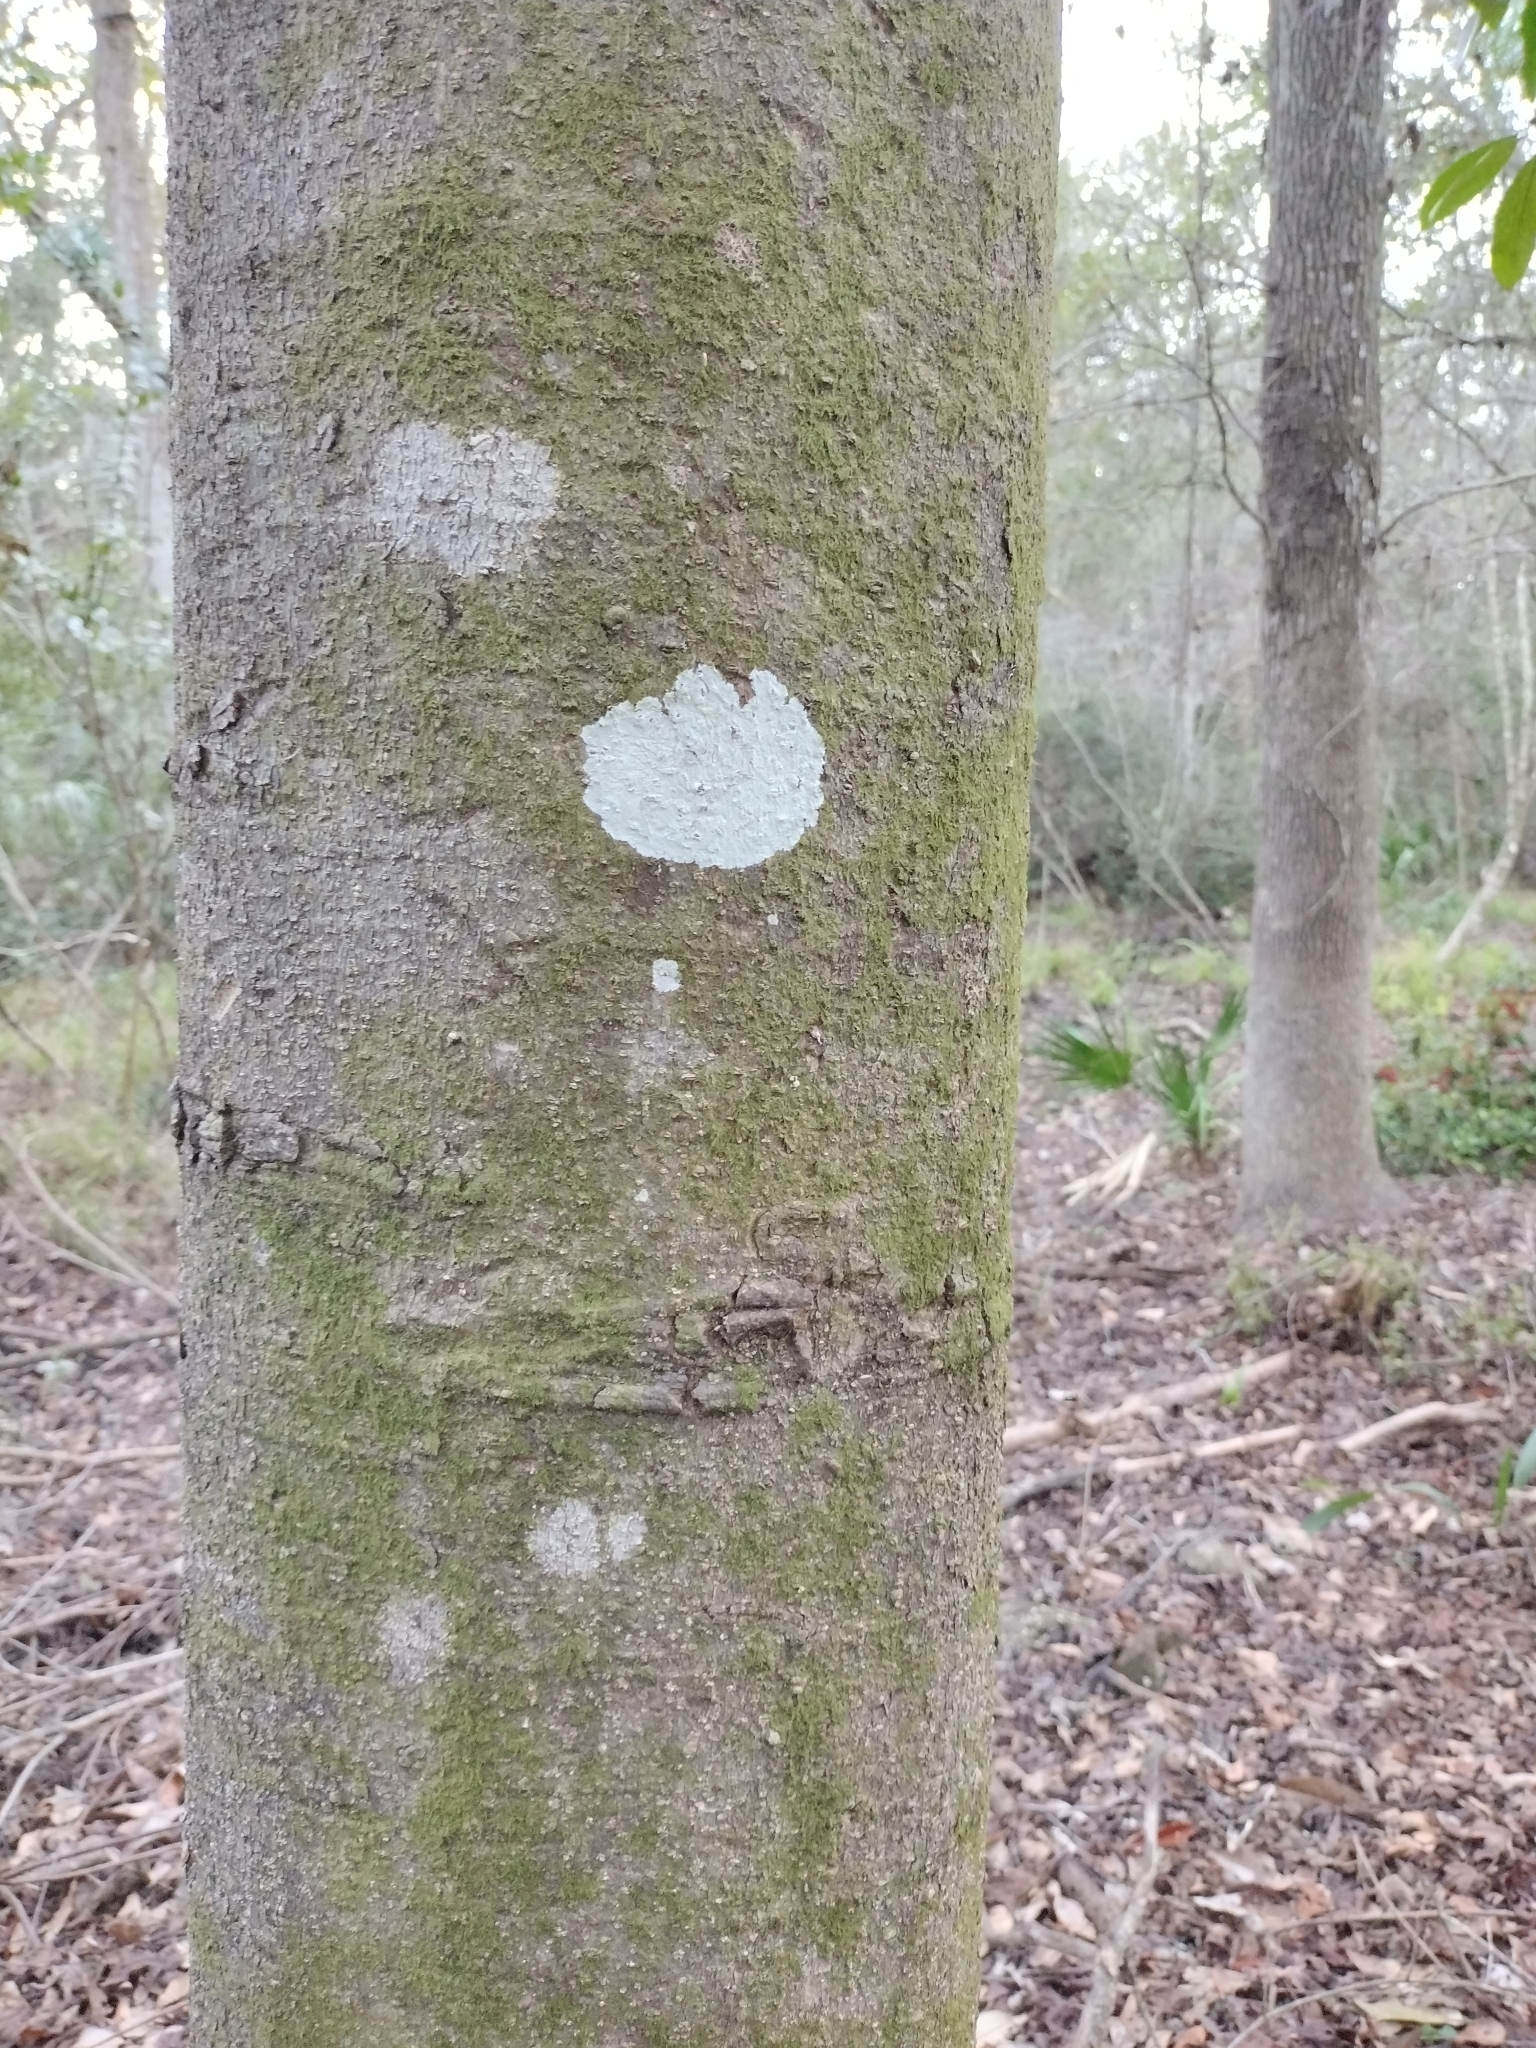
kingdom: Plantae
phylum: Tracheophyta
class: Magnoliopsida
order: Magnoliales
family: Magnoliaceae
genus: Magnolia
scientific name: Magnolia grandiflora
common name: Southern magnolia
